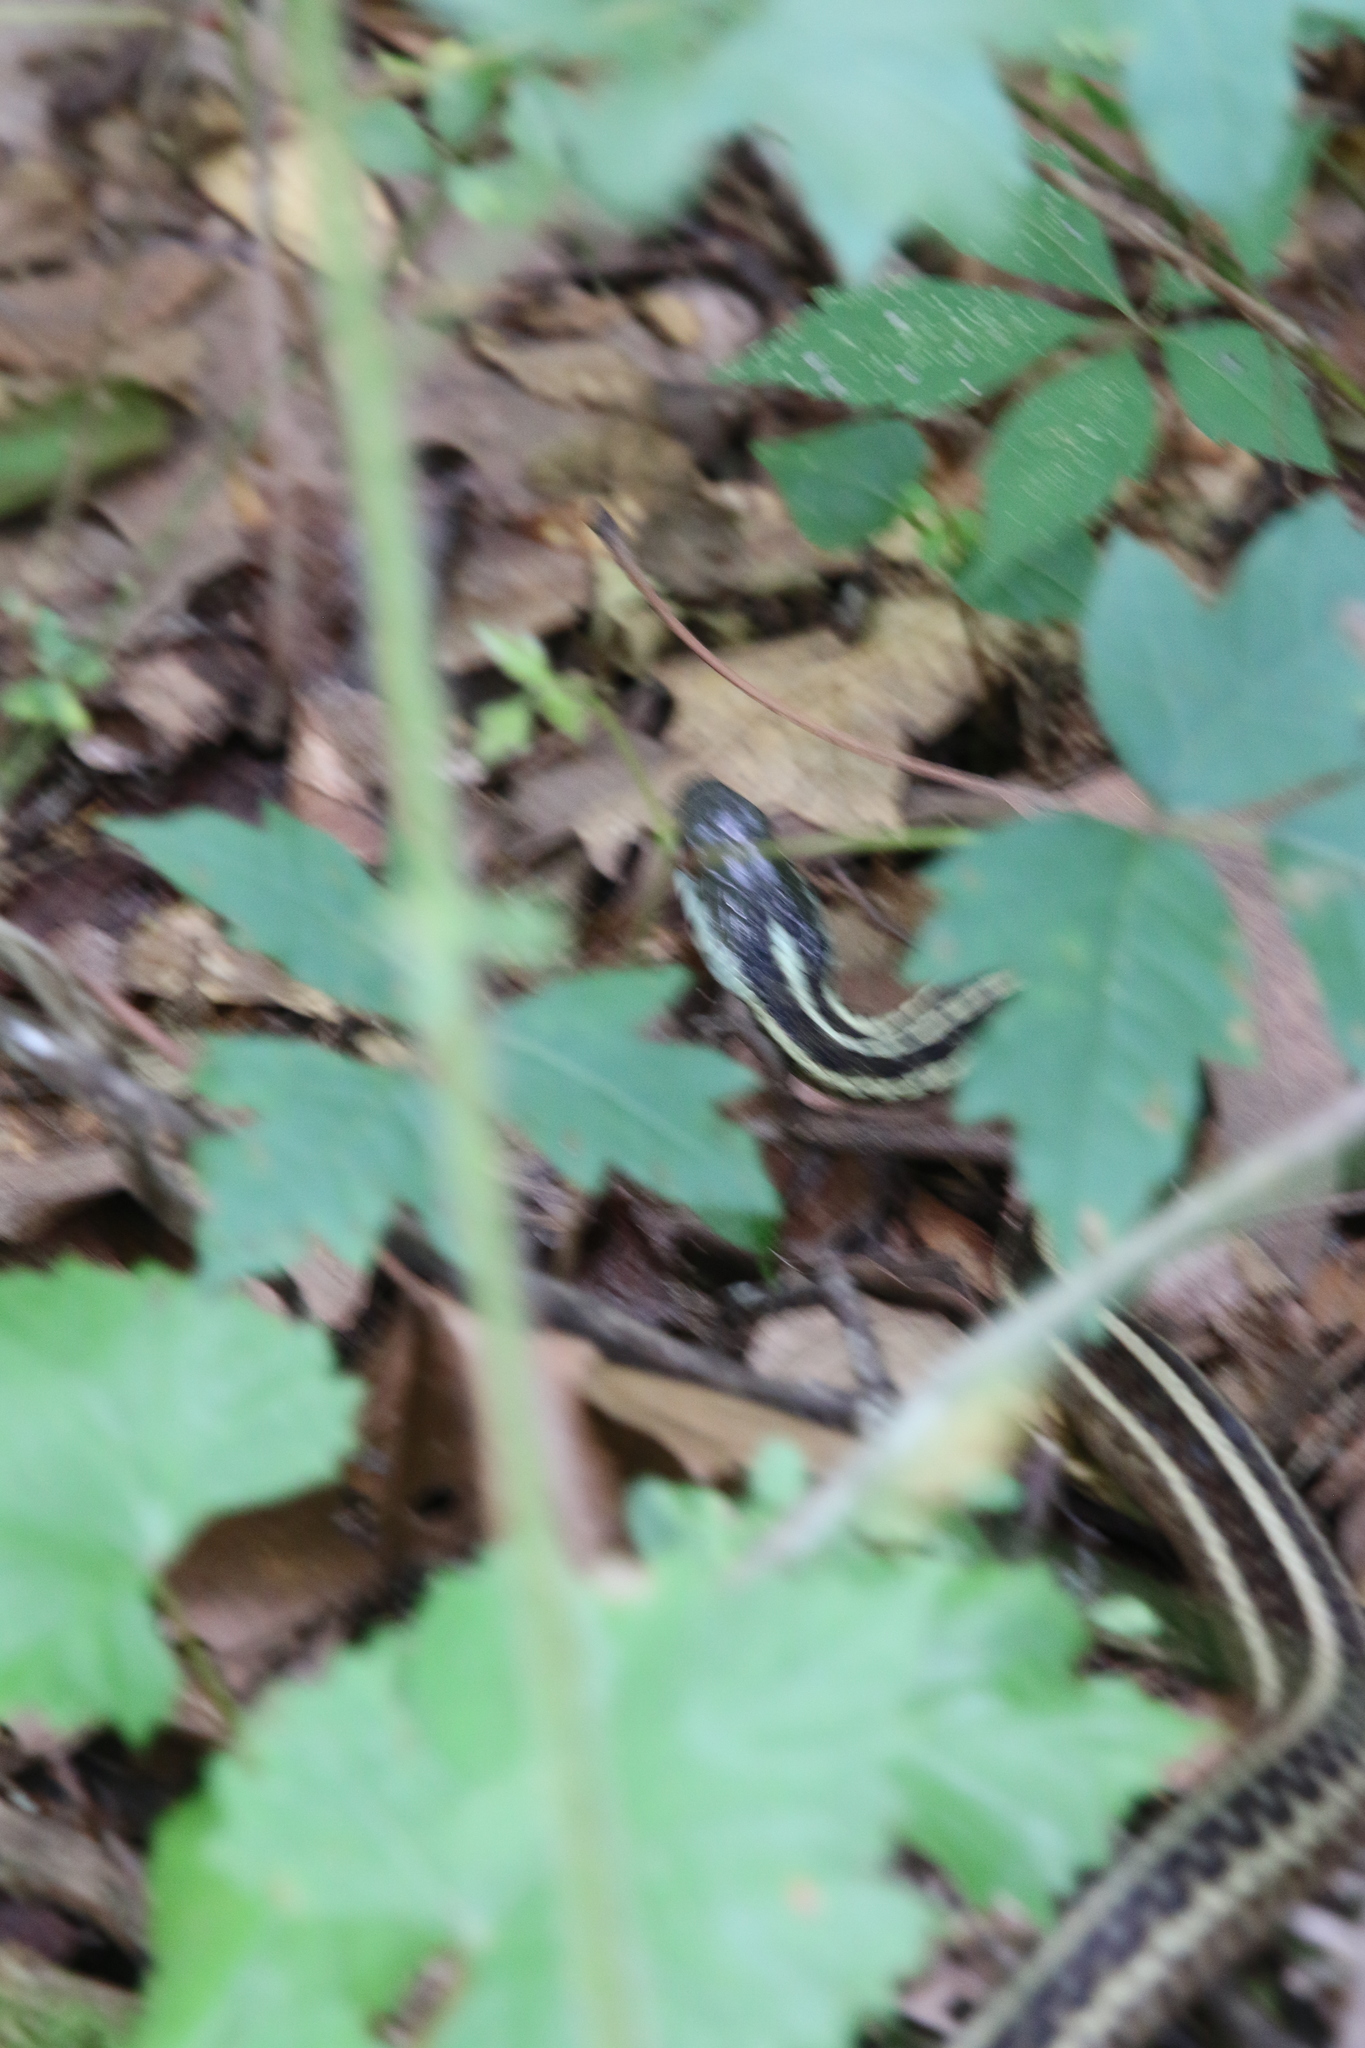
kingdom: Animalia
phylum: Chordata
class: Squamata
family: Colubridae
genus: Thamnophis
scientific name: Thamnophis sirtalis
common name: Common garter snake
